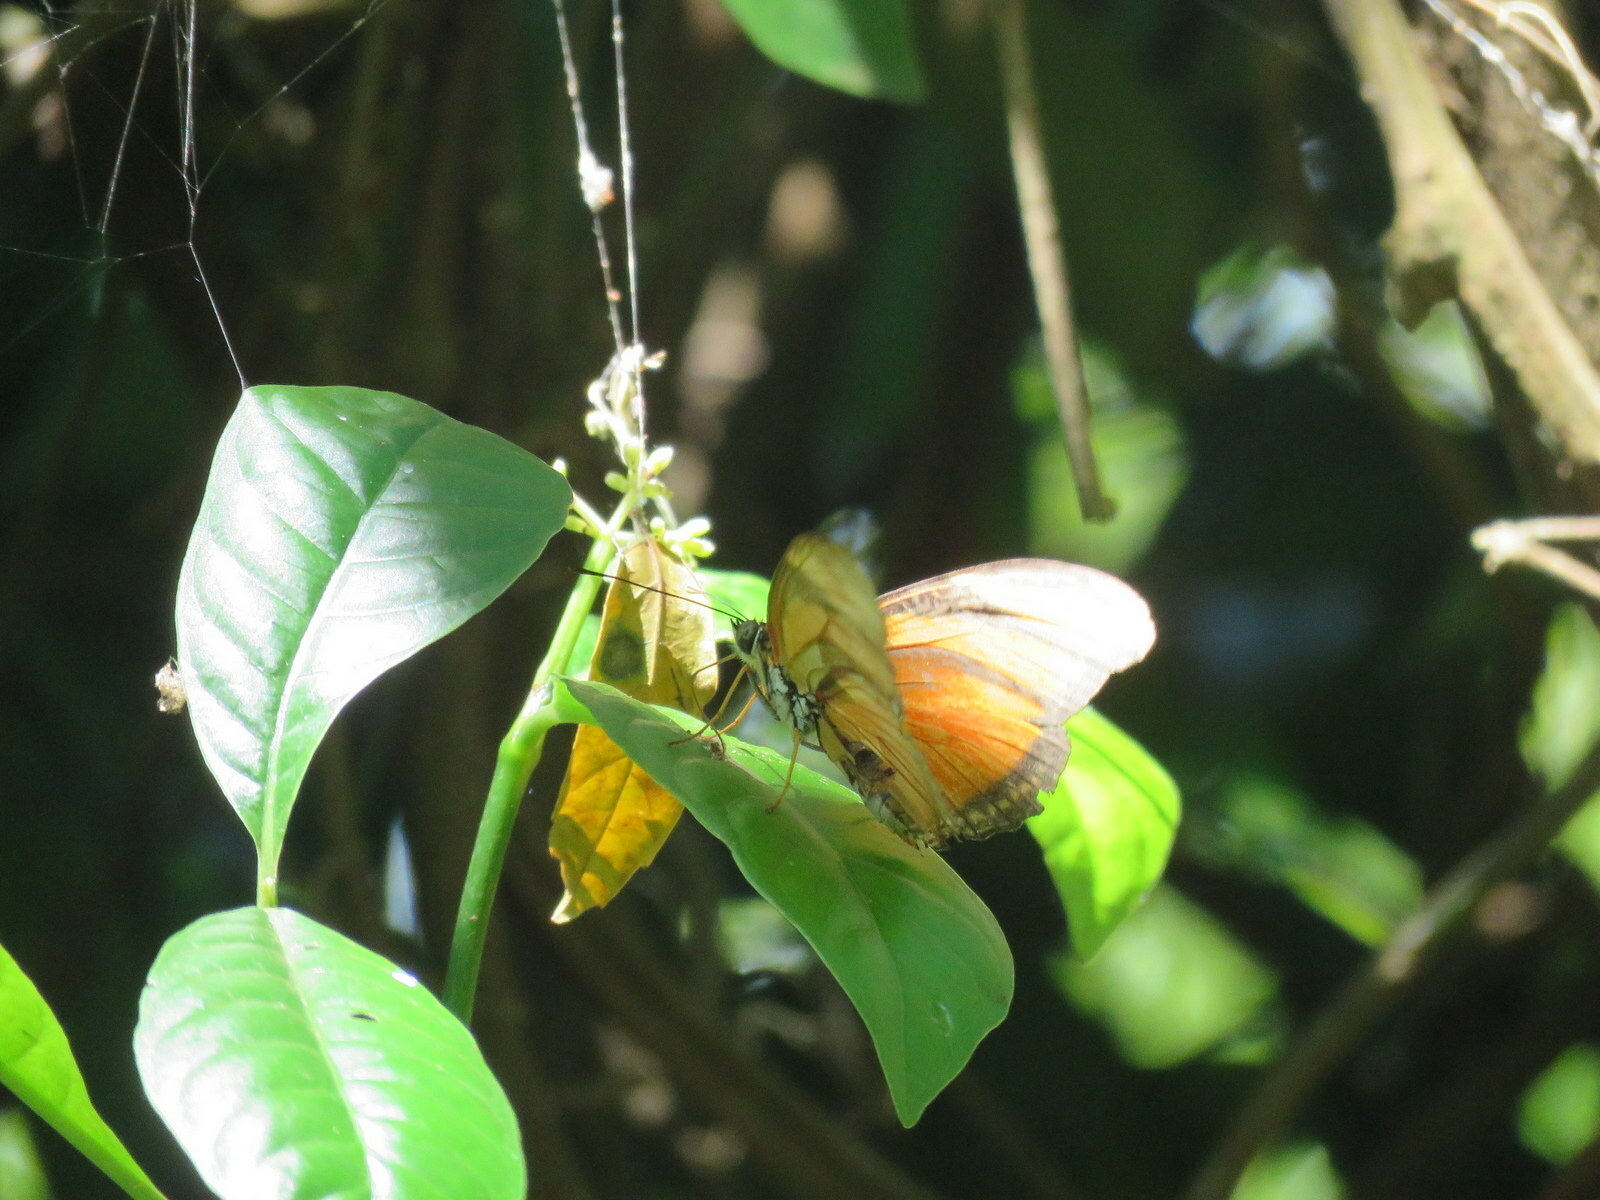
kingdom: Animalia
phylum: Arthropoda
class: Insecta
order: Lepidoptera
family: Nymphalidae
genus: Dryas
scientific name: Dryas iulia
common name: Flambeau
